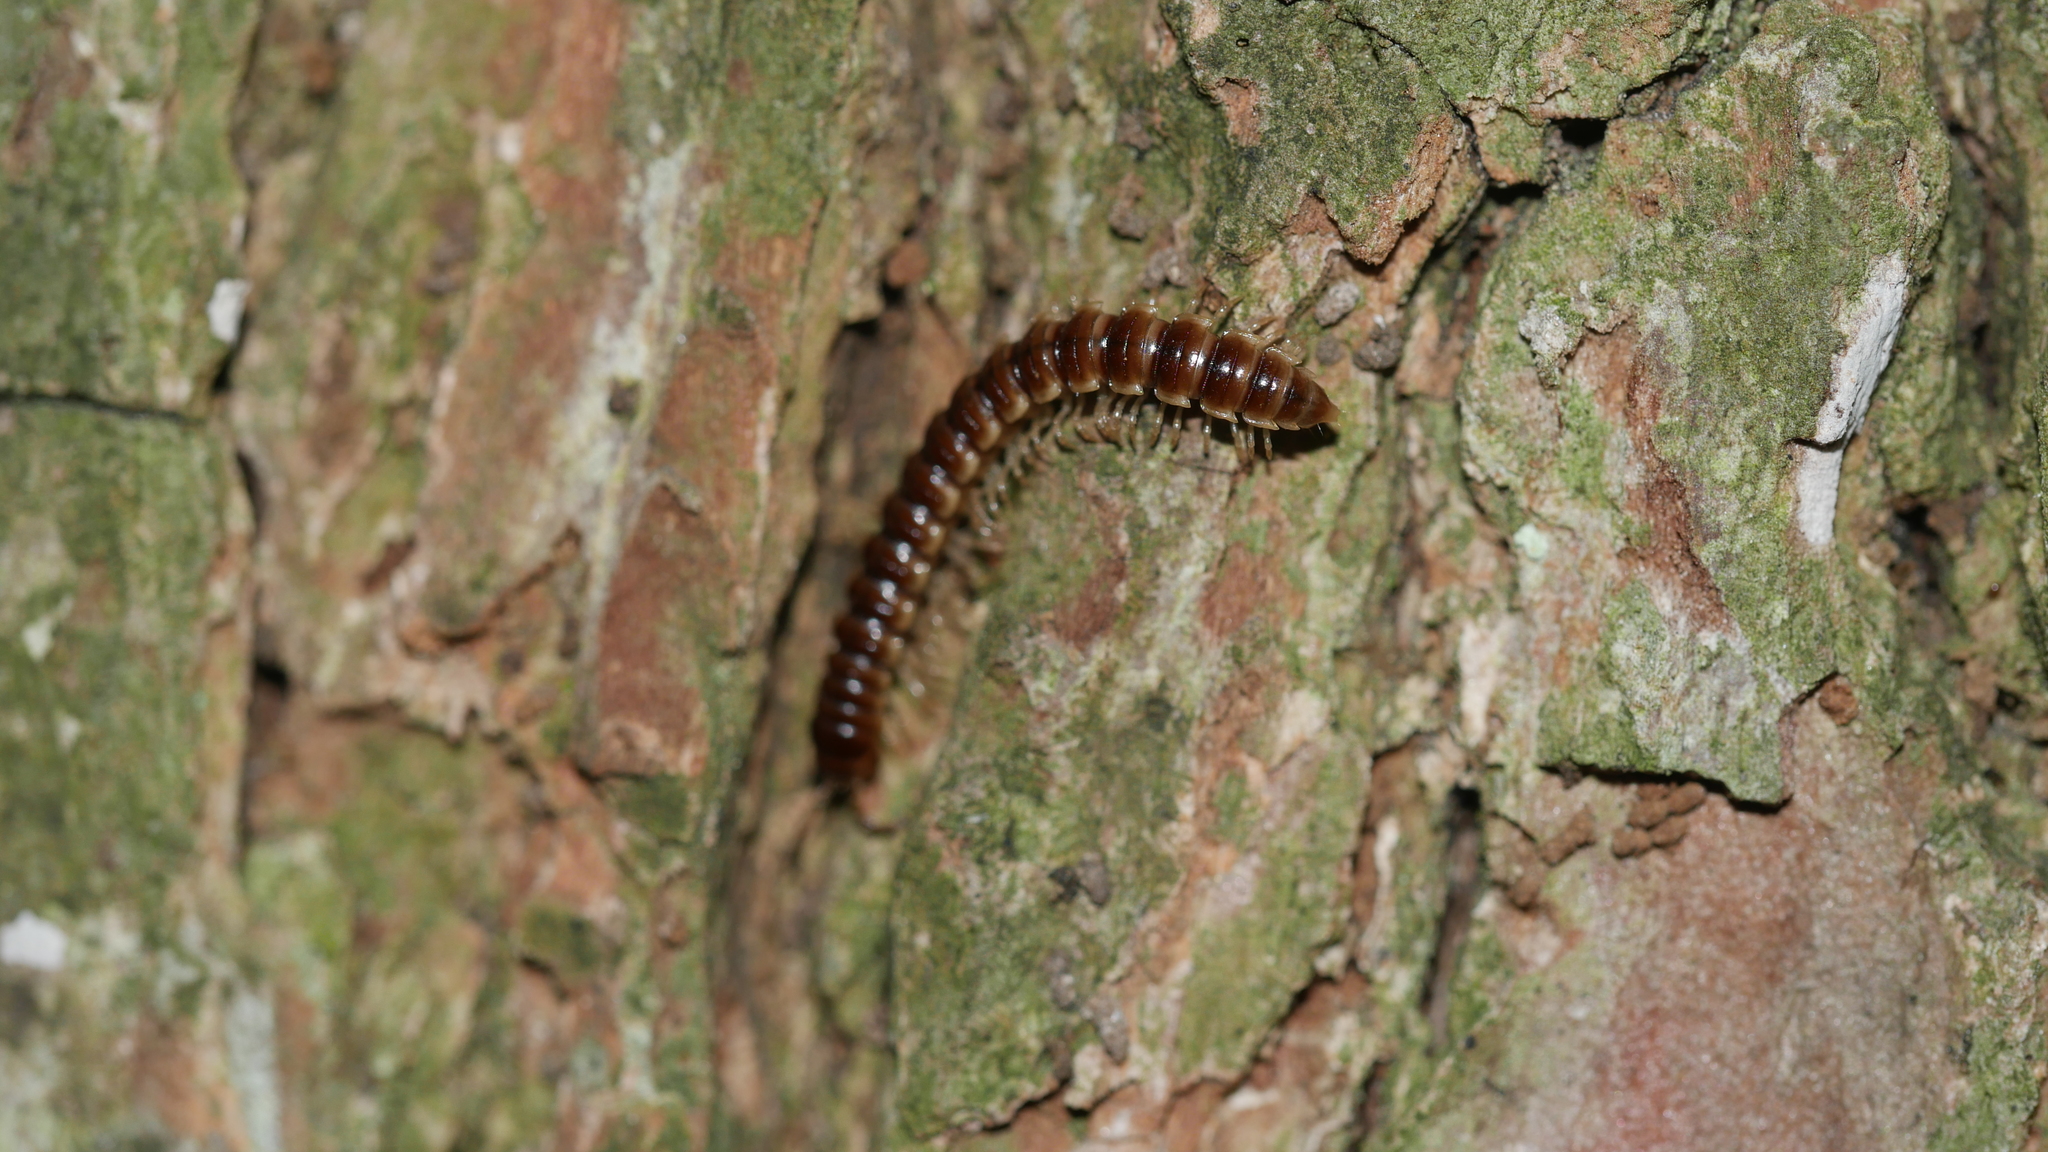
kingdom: Animalia
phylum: Arthropoda
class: Diplopoda
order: Polydesmida
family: Paradoxosomatidae
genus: Oxidus
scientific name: Oxidus gracilis
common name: Greenhouse millipede
